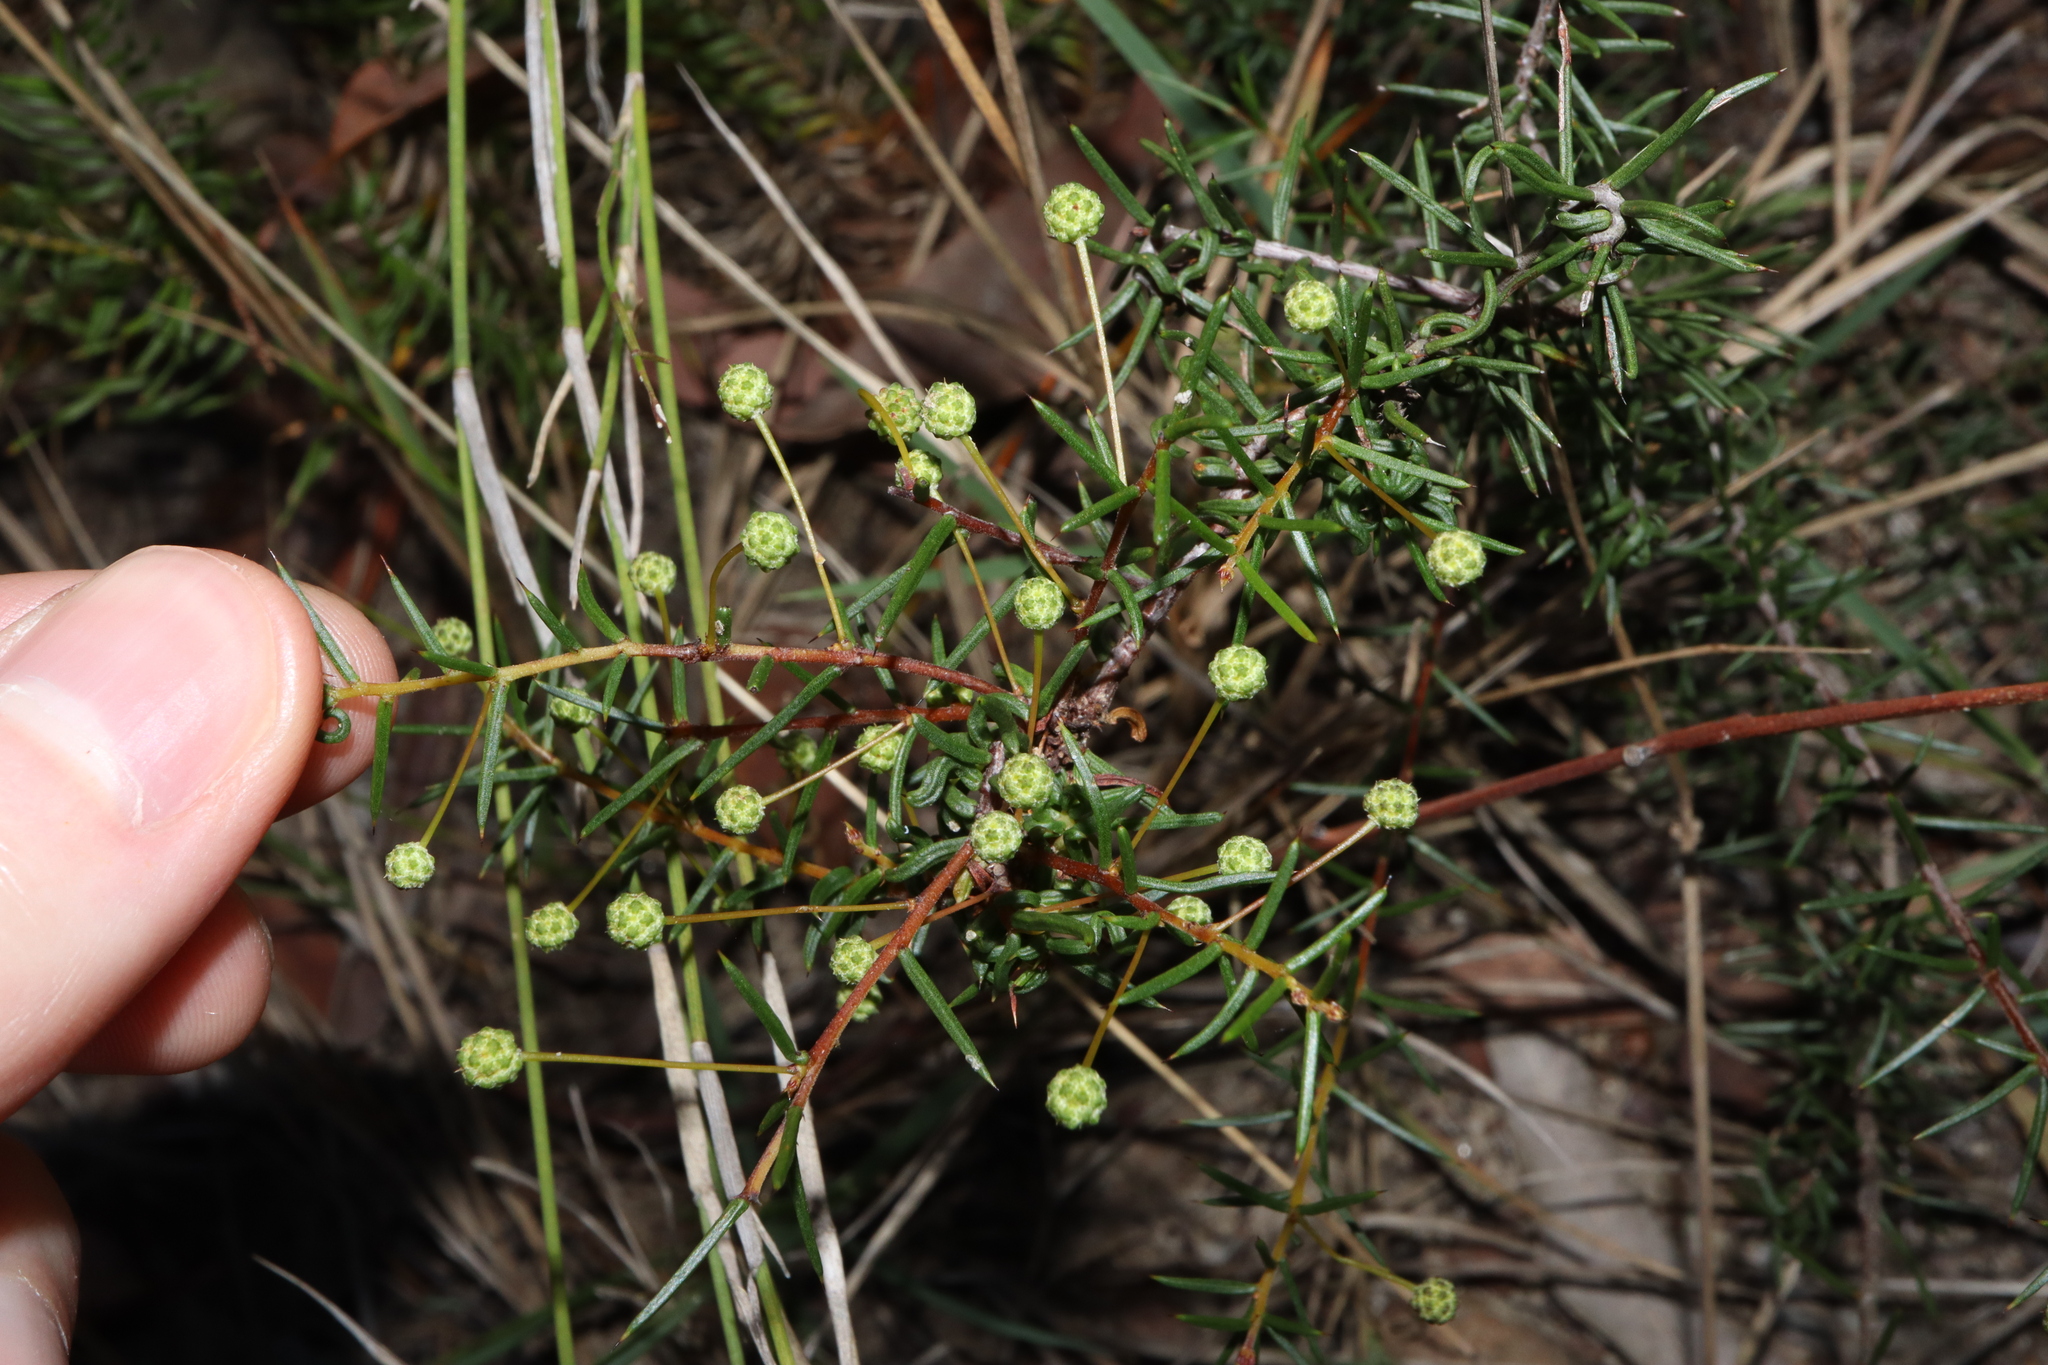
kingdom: Plantae
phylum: Tracheophyta
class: Magnoliopsida
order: Fabales
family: Fabaceae
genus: Acacia
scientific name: Acacia brownii
